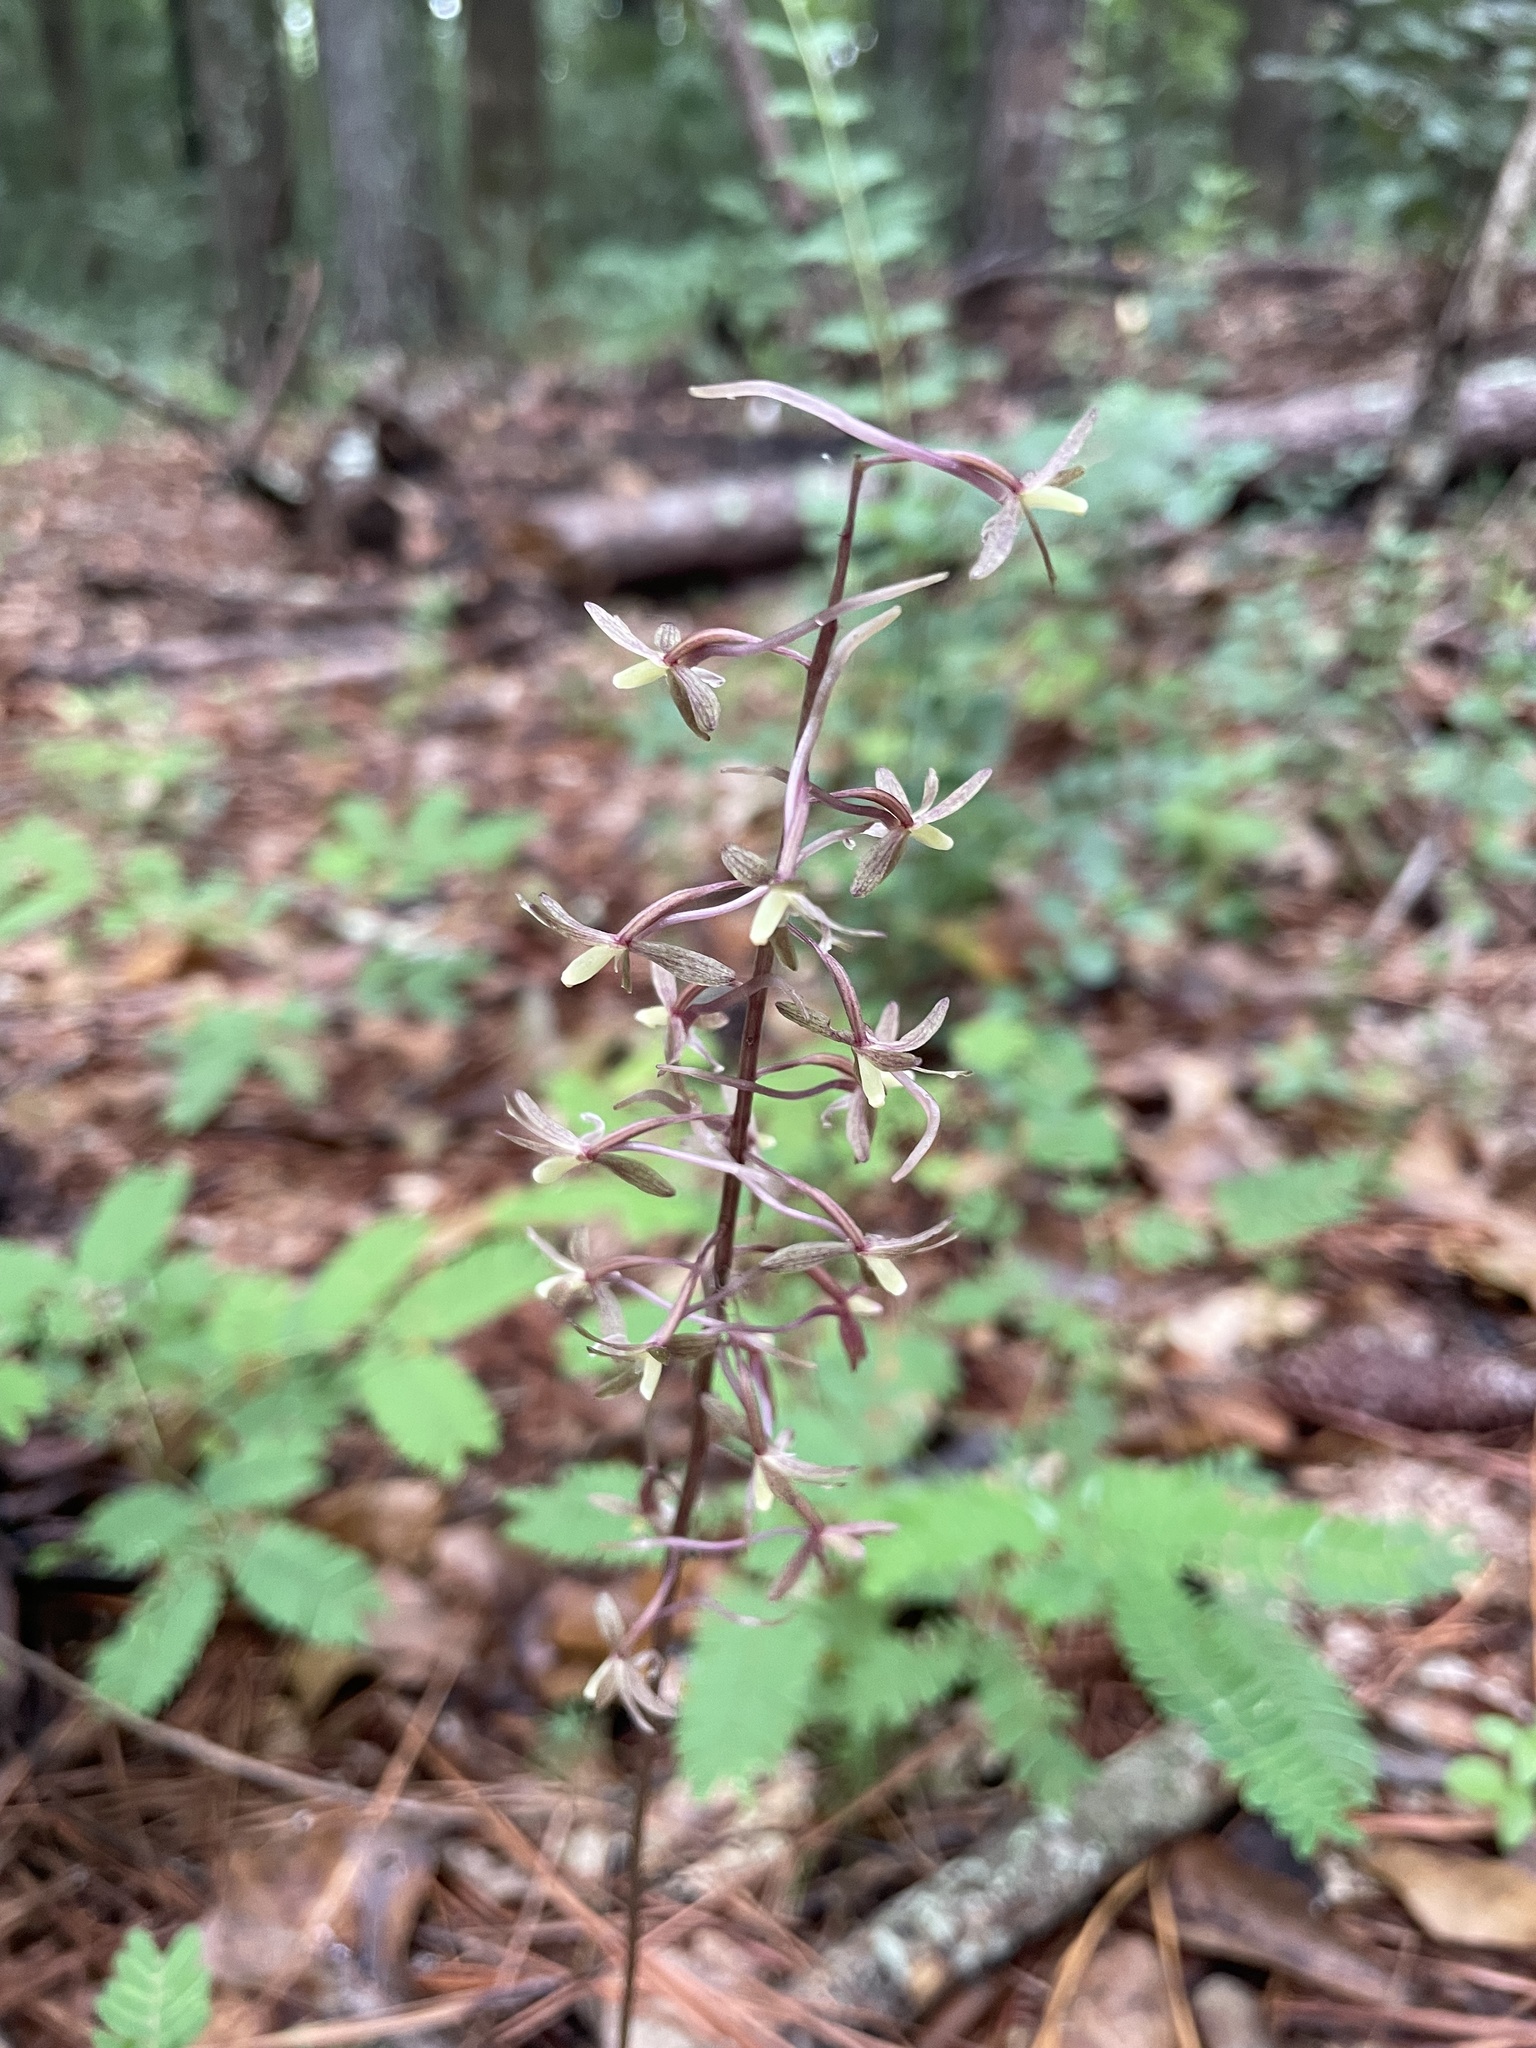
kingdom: Plantae
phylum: Tracheophyta
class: Liliopsida
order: Asparagales
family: Orchidaceae
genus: Tipularia
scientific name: Tipularia discolor
